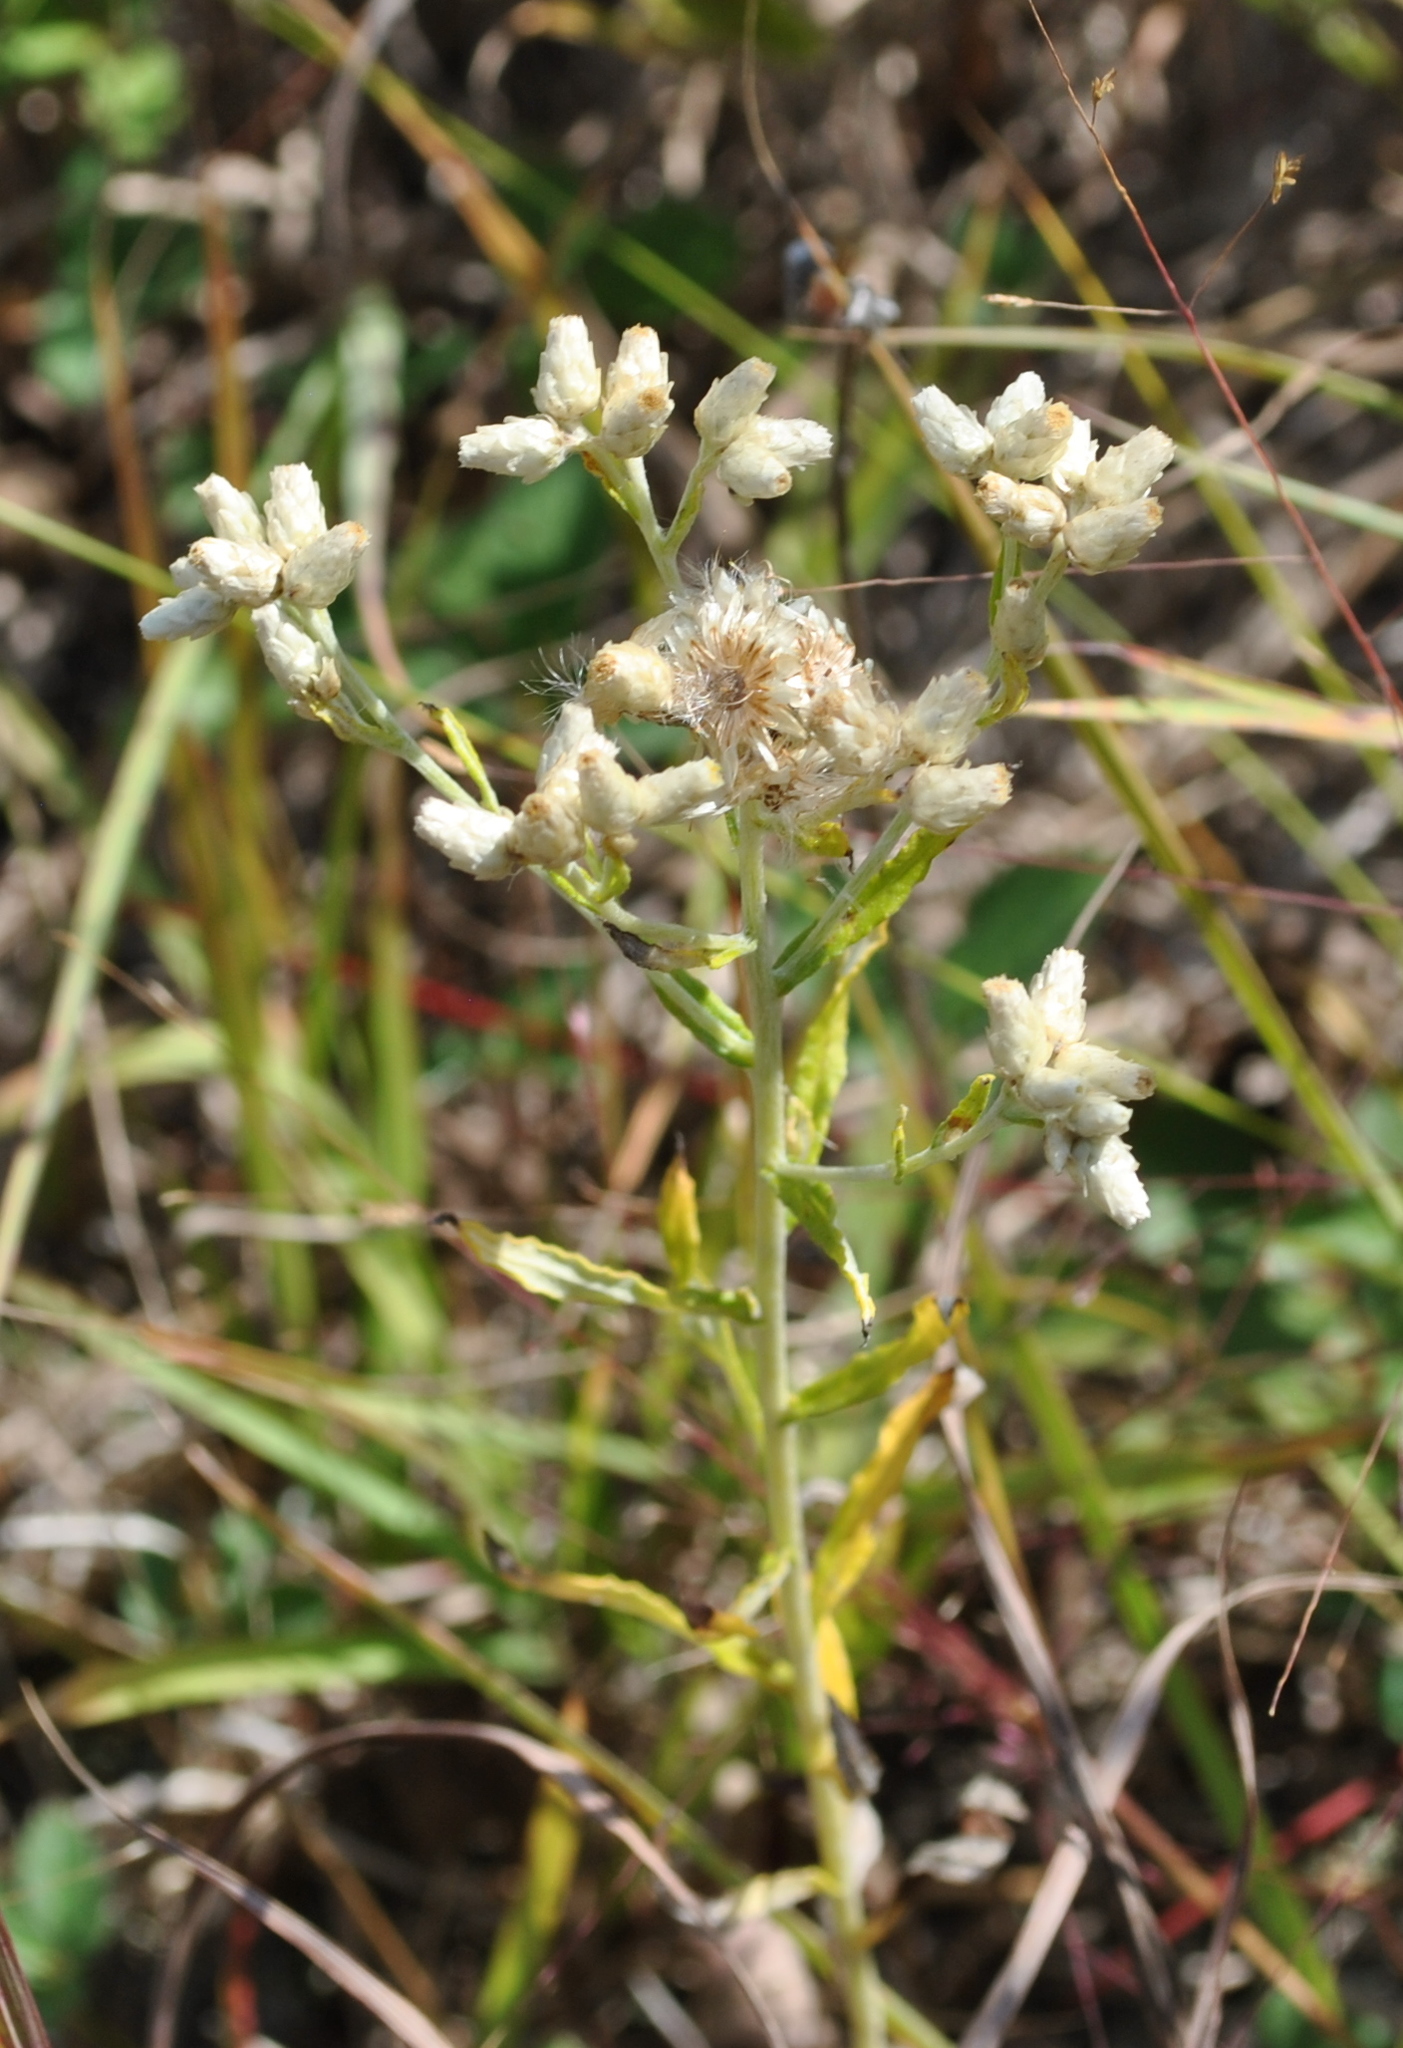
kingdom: Plantae
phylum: Tracheophyta
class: Magnoliopsida
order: Asterales
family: Asteraceae
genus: Pseudognaphalium
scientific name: Pseudognaphalium obtusifolium
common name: Eastern rabbit-tobacco
